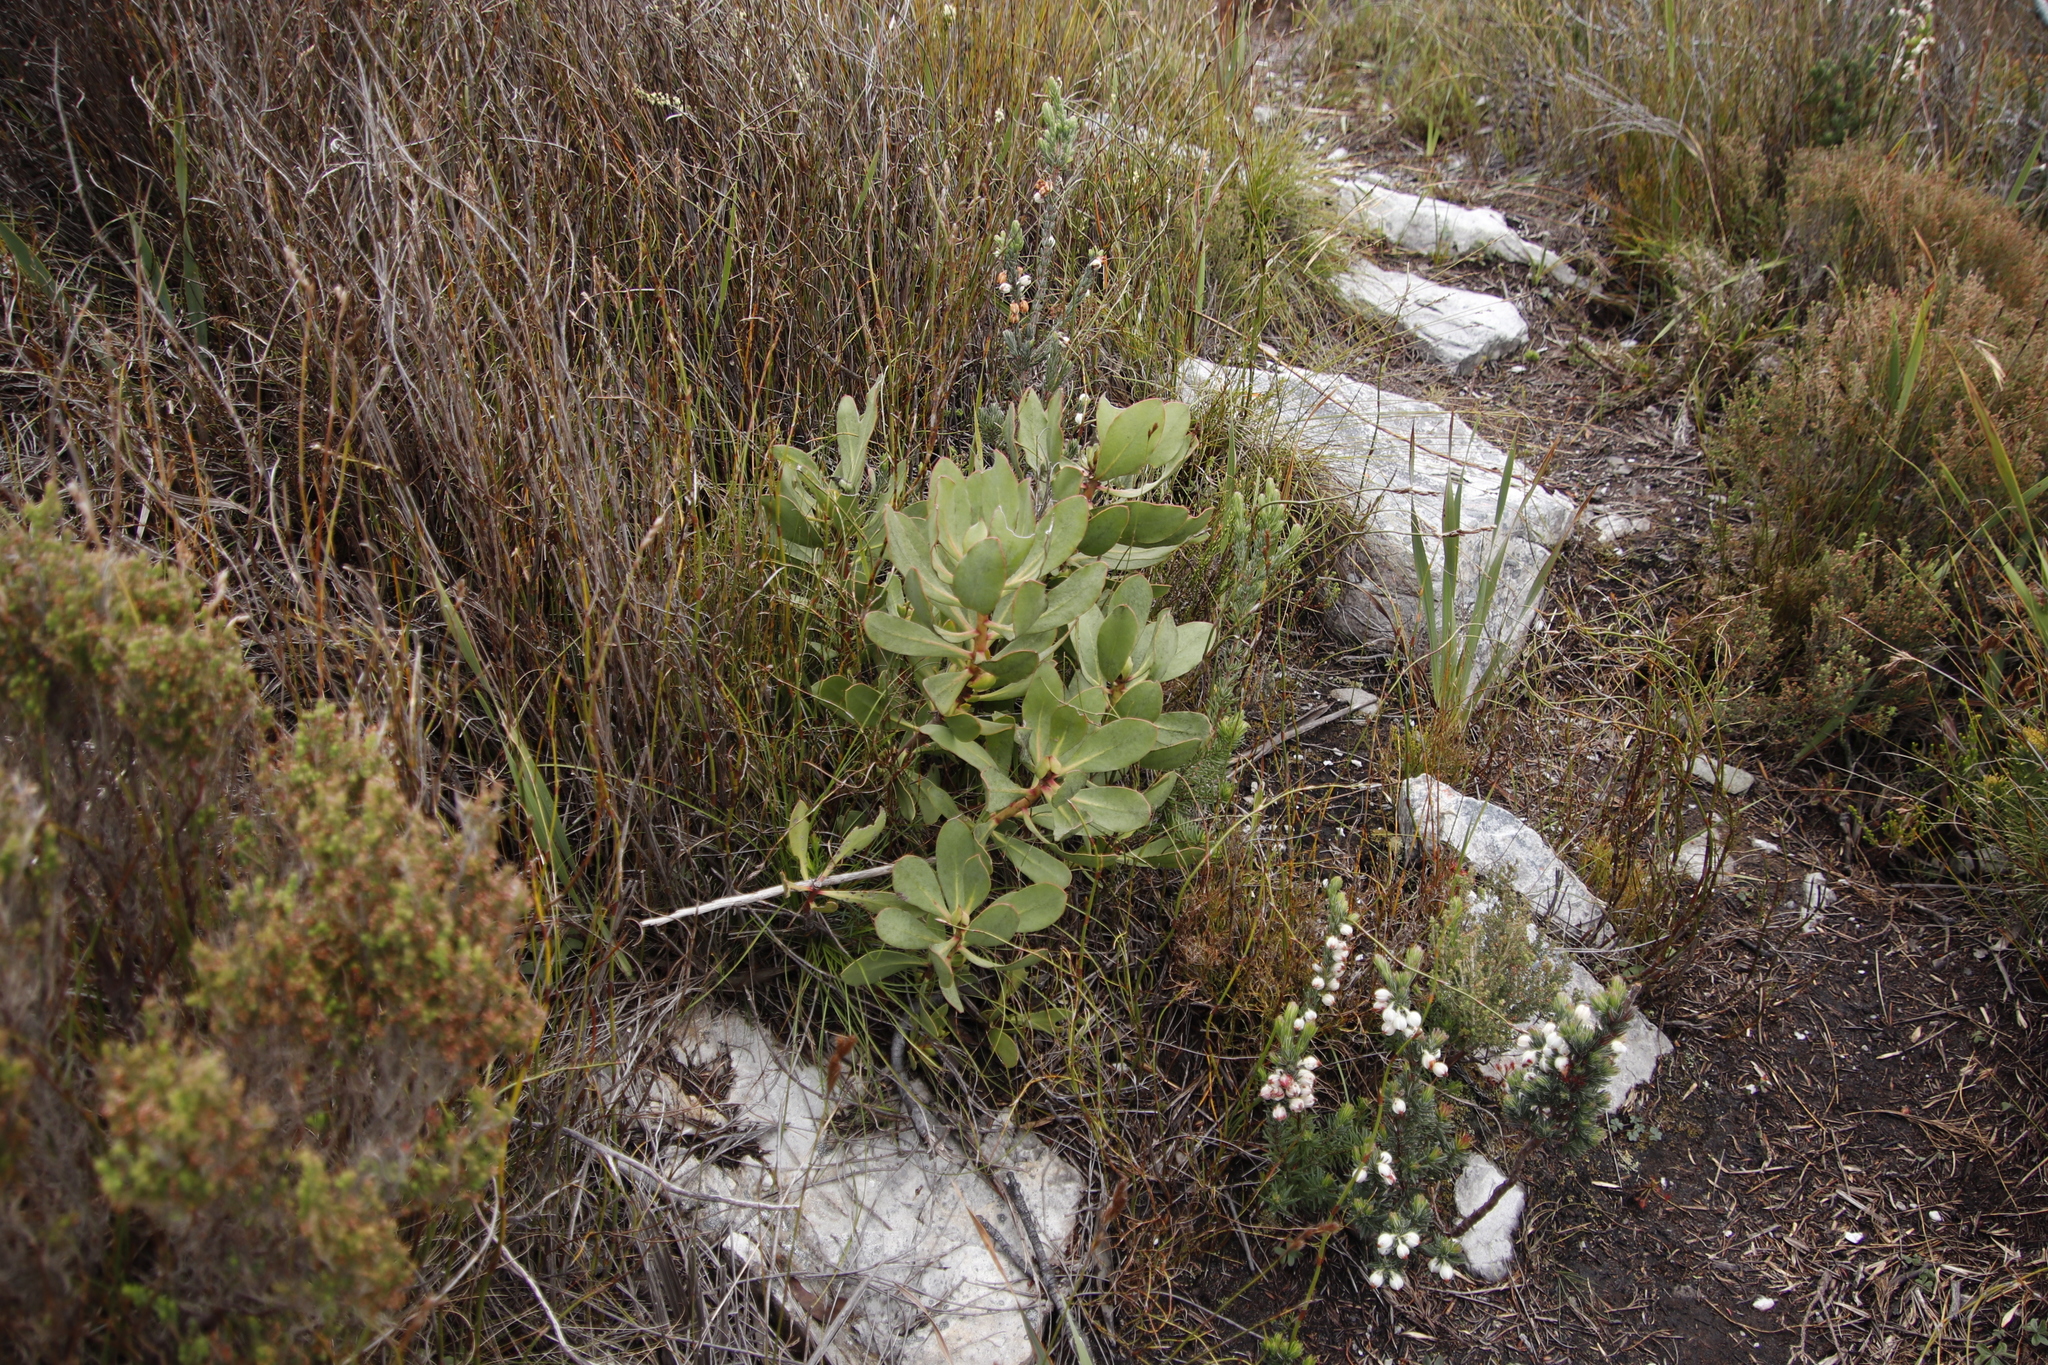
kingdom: Plantae
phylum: Tracheophyta
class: Magnoliopsida
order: Proteales
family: Proteaceae
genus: Protea
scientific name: Protea speciosa
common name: Brown-beard sugarbush
